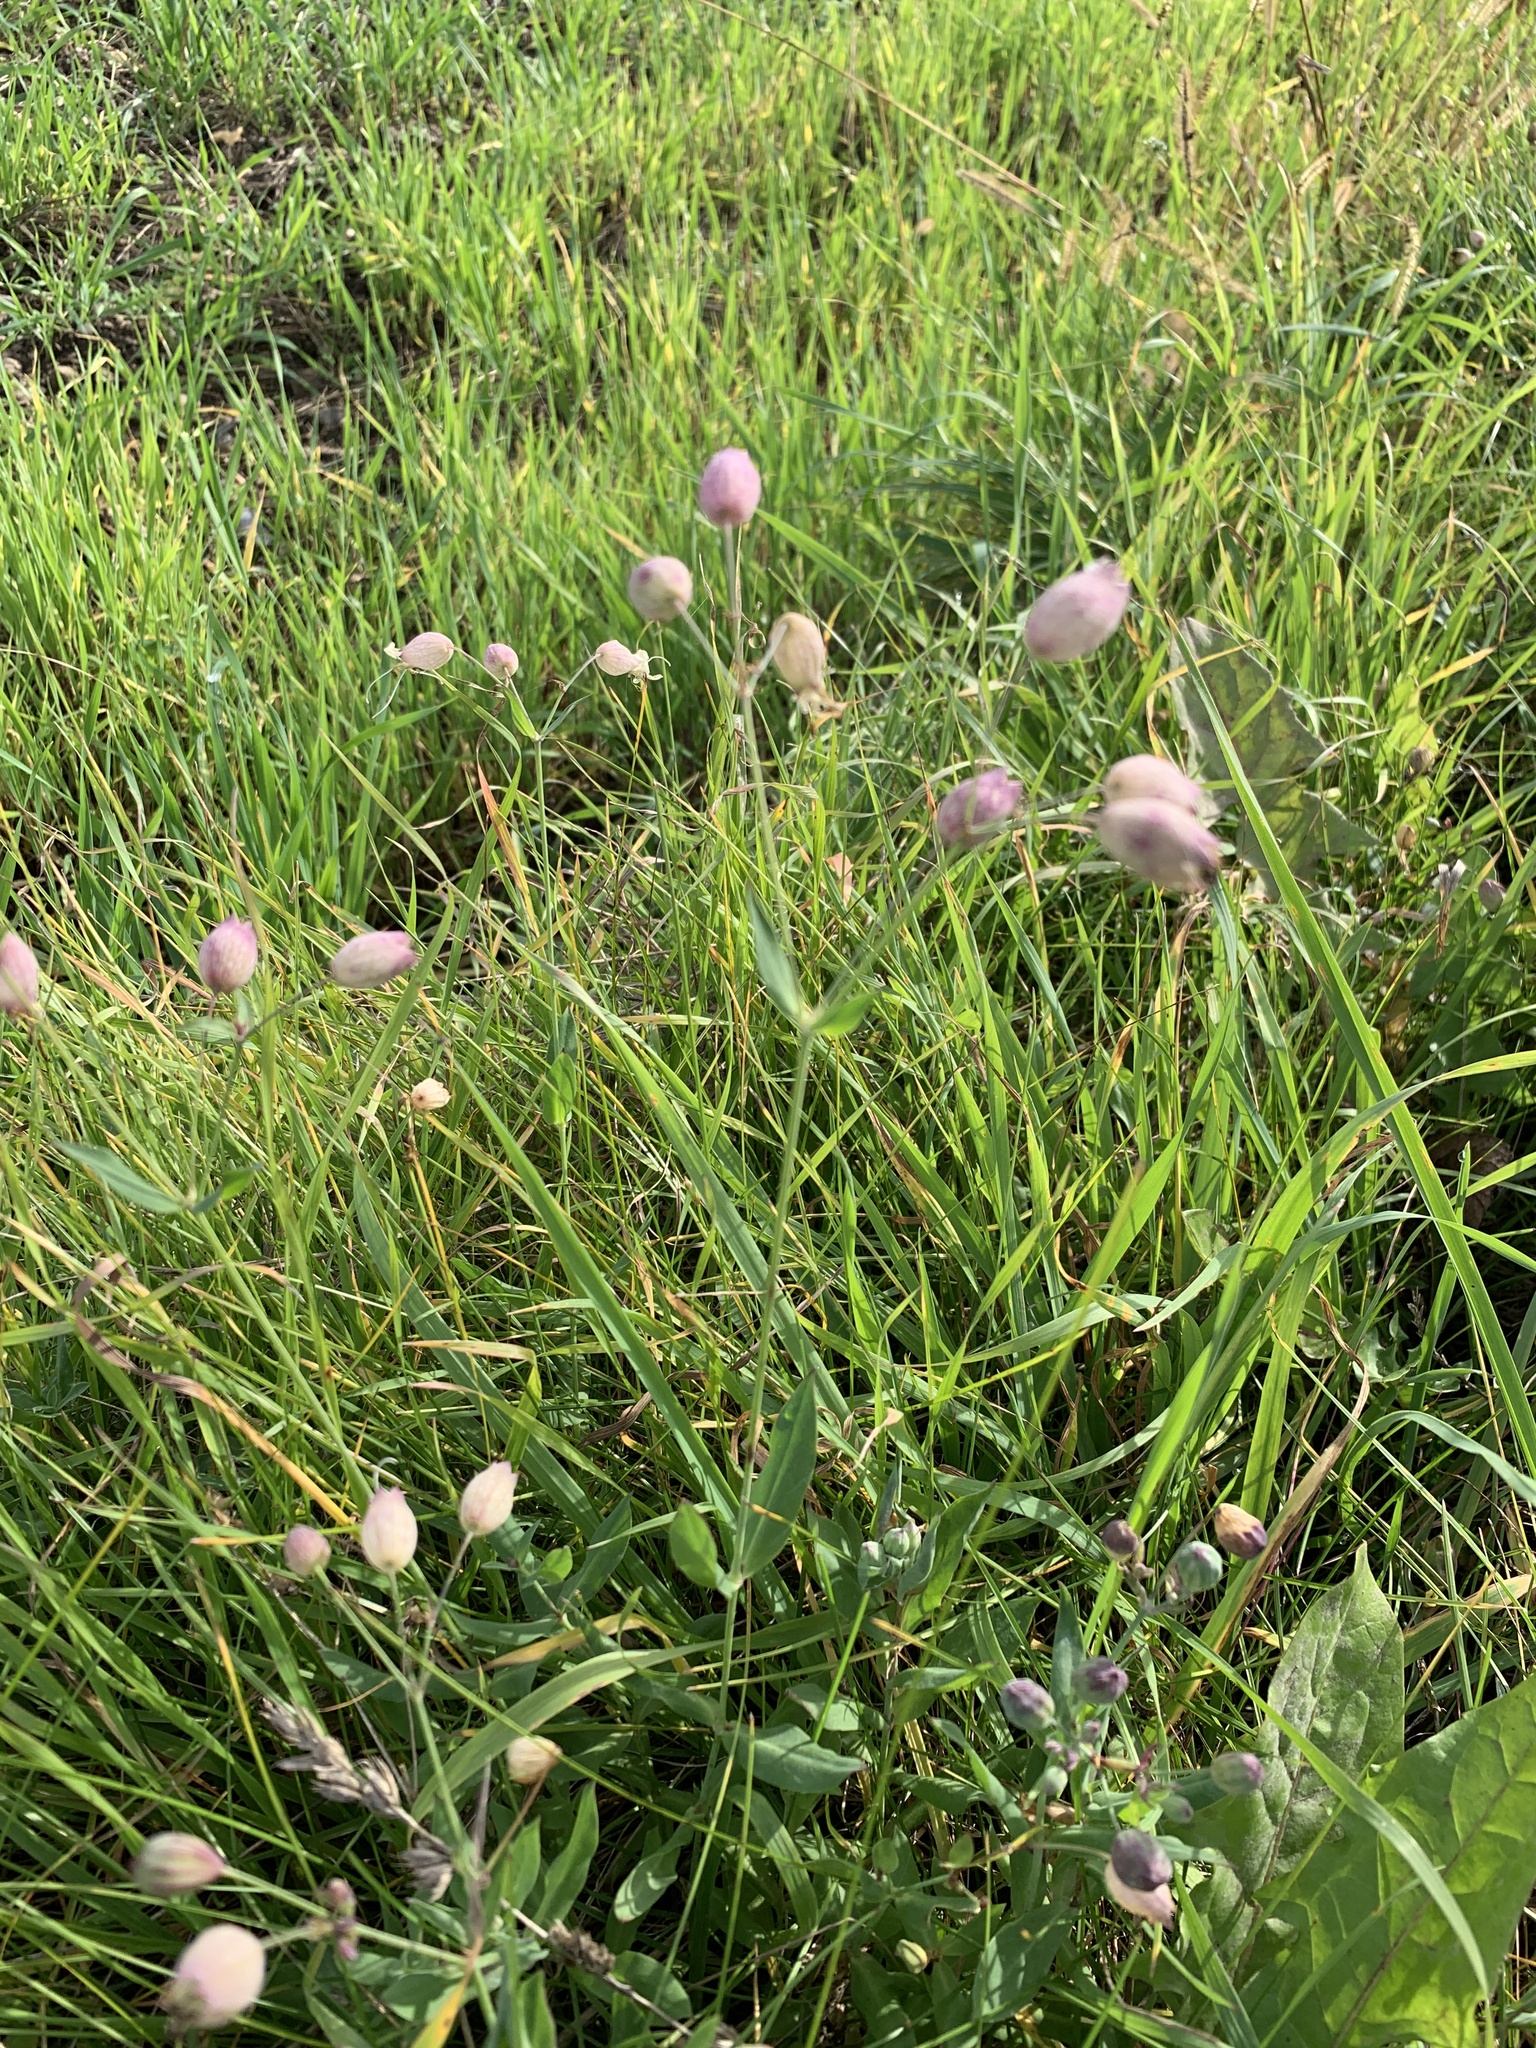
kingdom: Plantae
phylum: Tracheophyta
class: Magnoliopsida
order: Caryophyllales
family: Caryophyllaceae
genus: Silene
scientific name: Silene vulgaris
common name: Bladder campion
